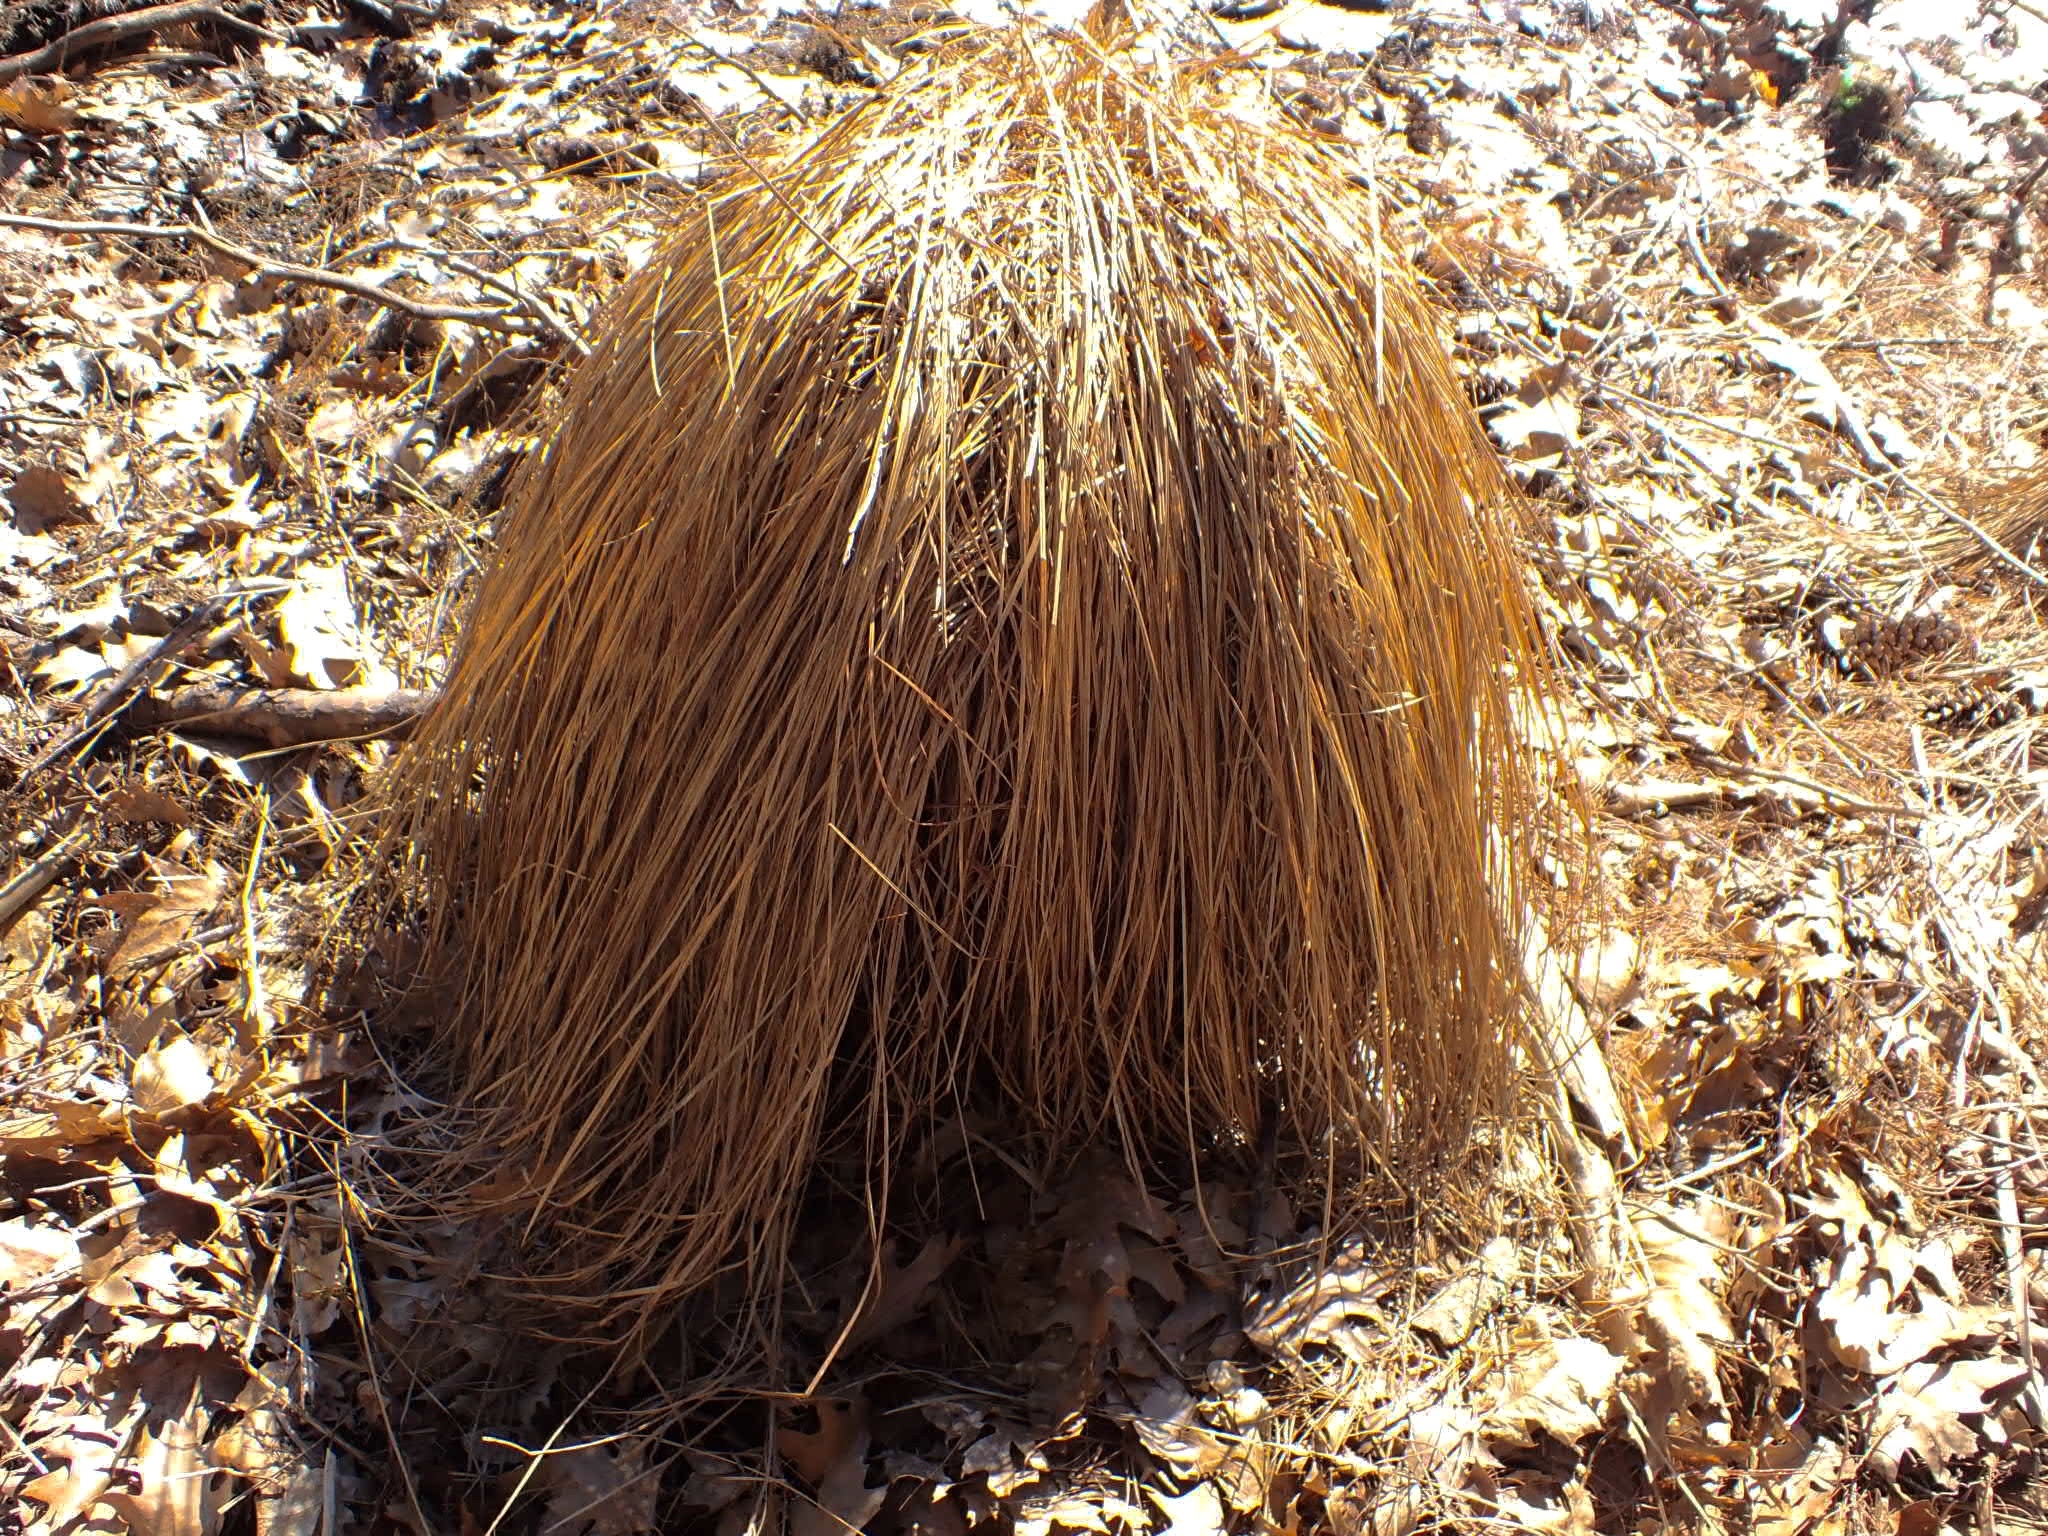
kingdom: Plantae
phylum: Tracheophyta
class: Liliopsida
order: Poales
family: Cyperaceae
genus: Carex
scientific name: Carex stricta
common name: Hummock sedge
